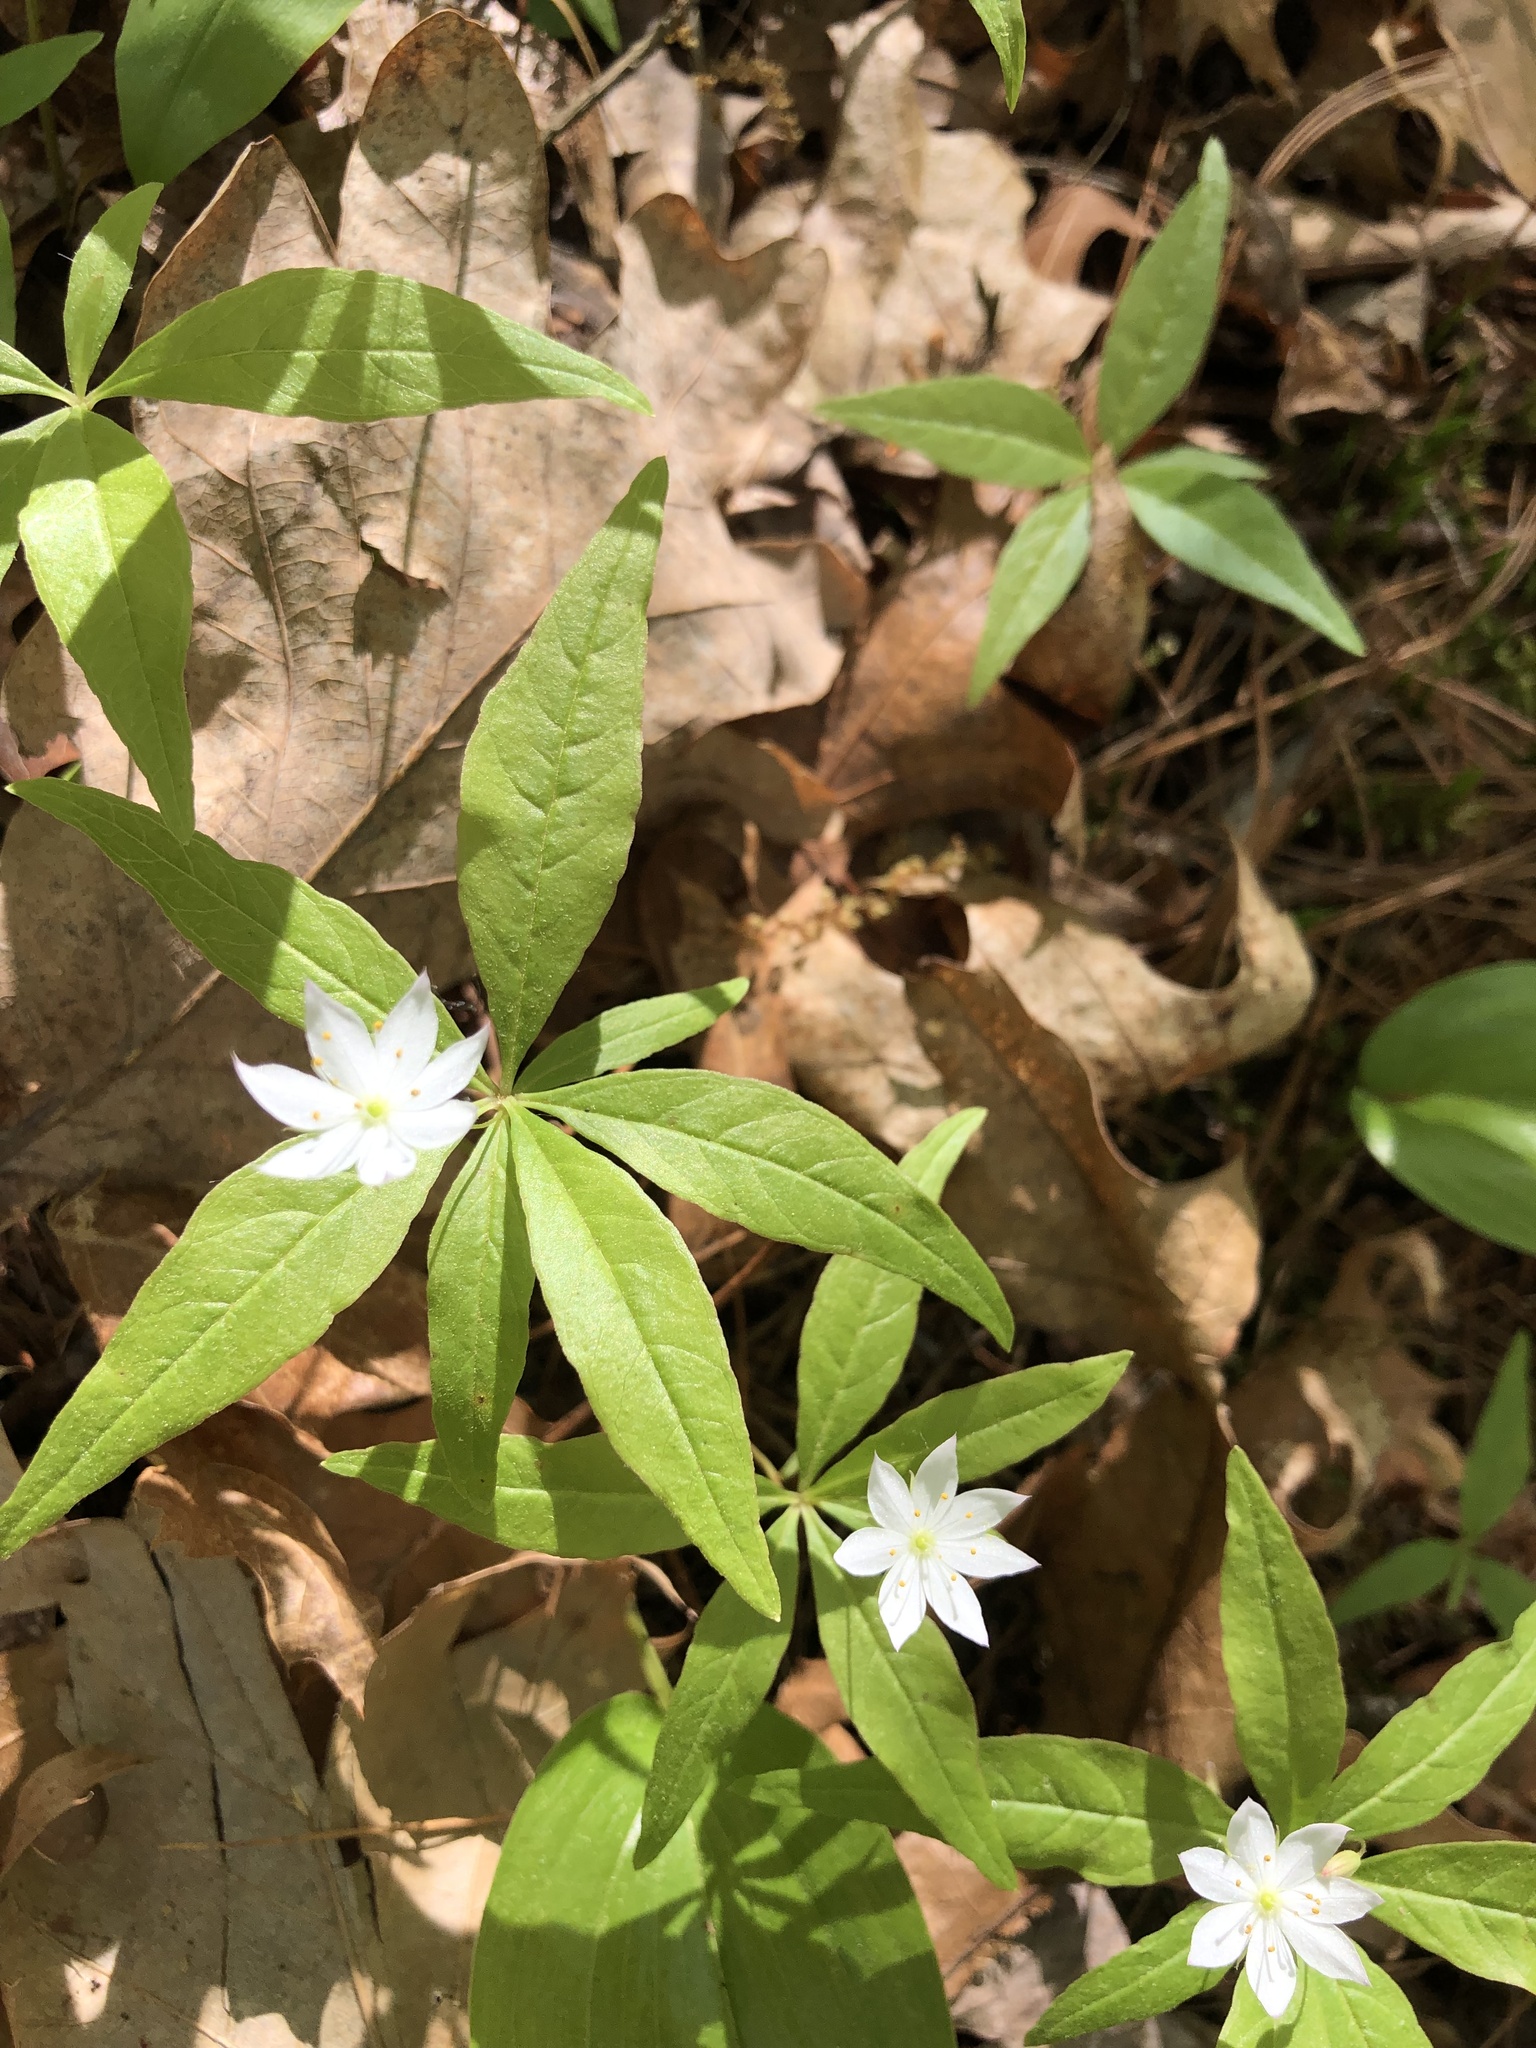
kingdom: Plantae
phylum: Tracheophyta
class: Magnoliopsida
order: Ericales
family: Primulaceae
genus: Lysimachia
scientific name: Lysimachia borealis
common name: American starflower
